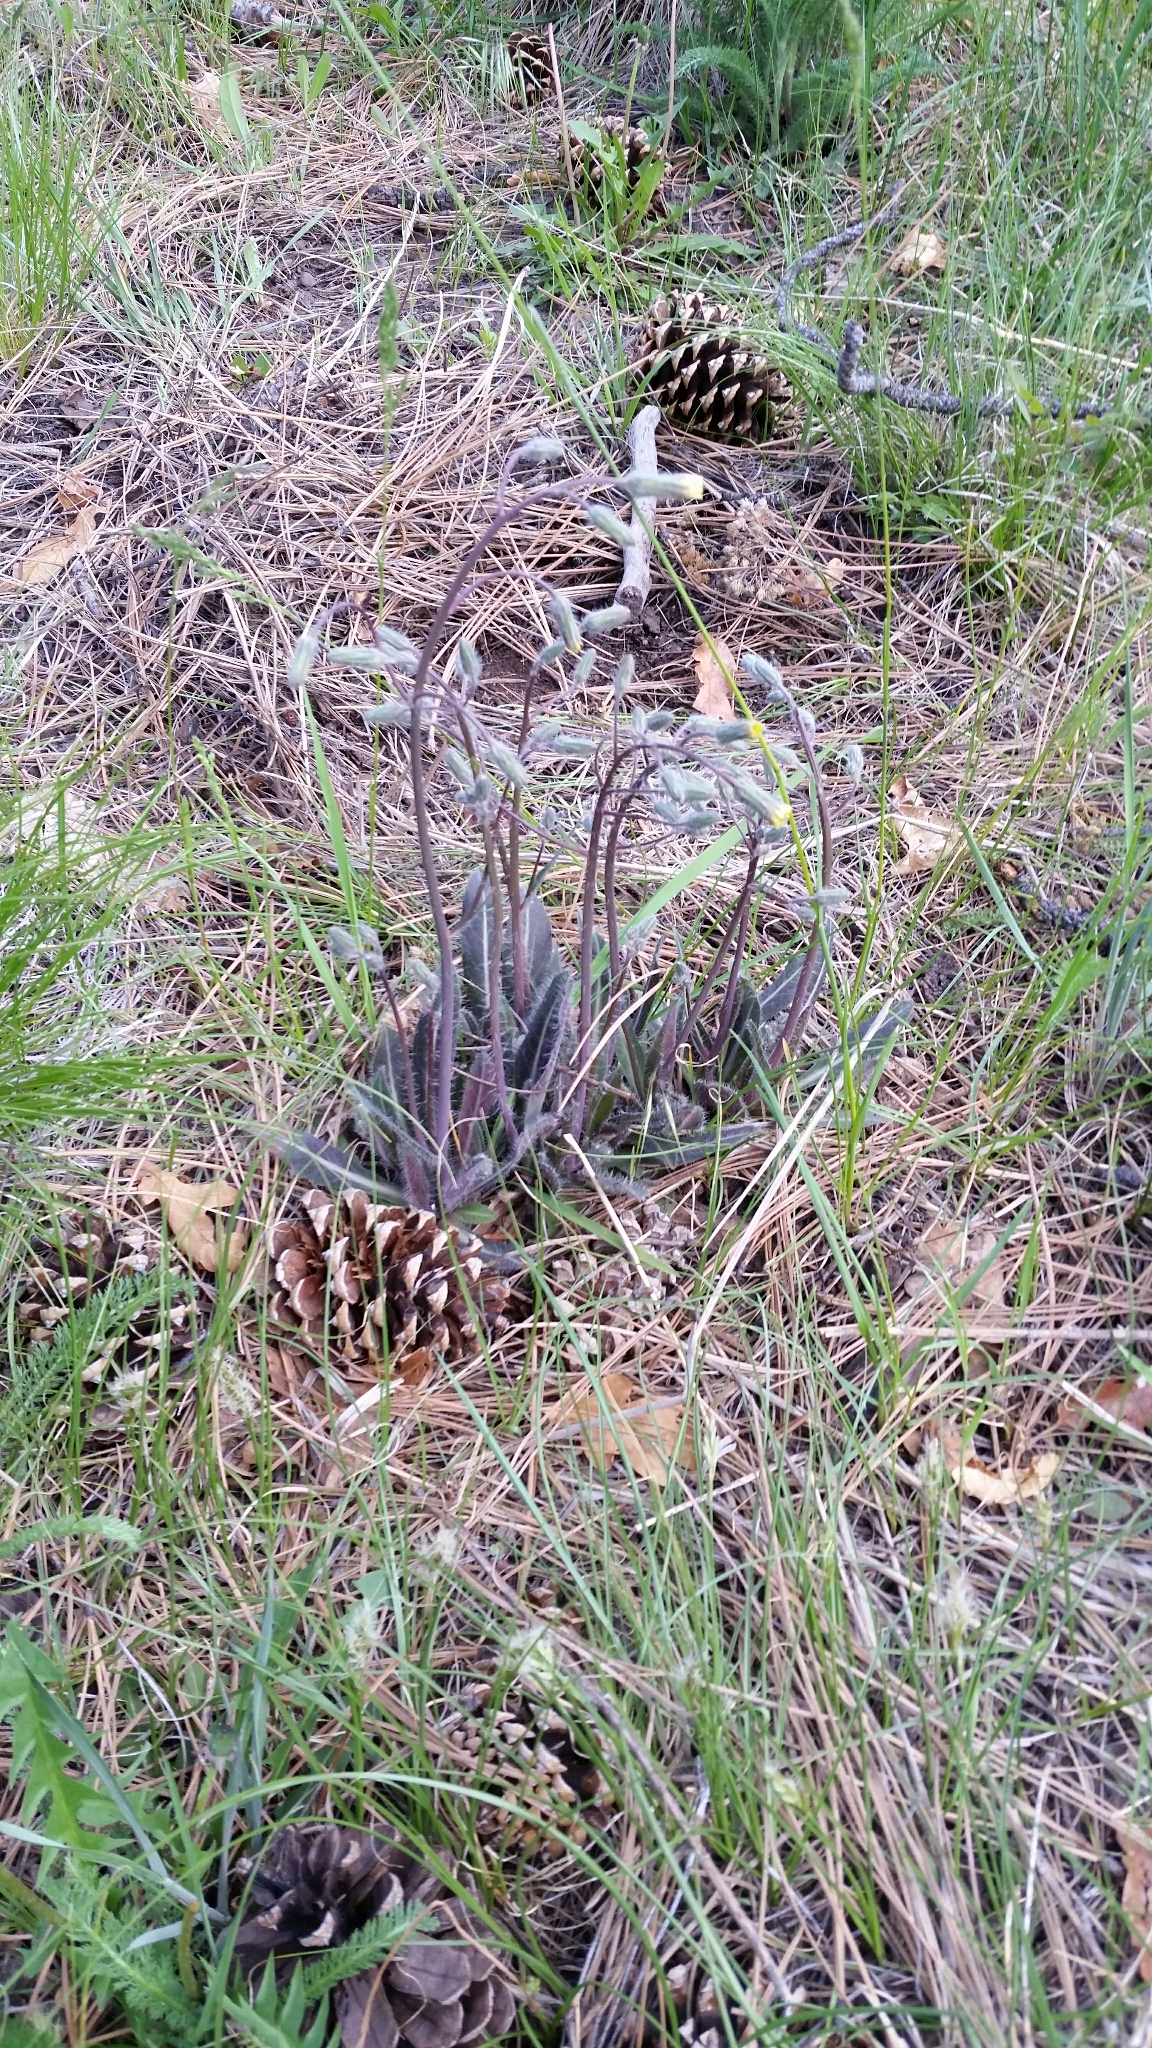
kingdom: Plantae
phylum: Tracheophyta
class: Magnoliopsida
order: Asterales
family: Asteraceae
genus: Hieracium
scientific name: Hieracium fendleri
